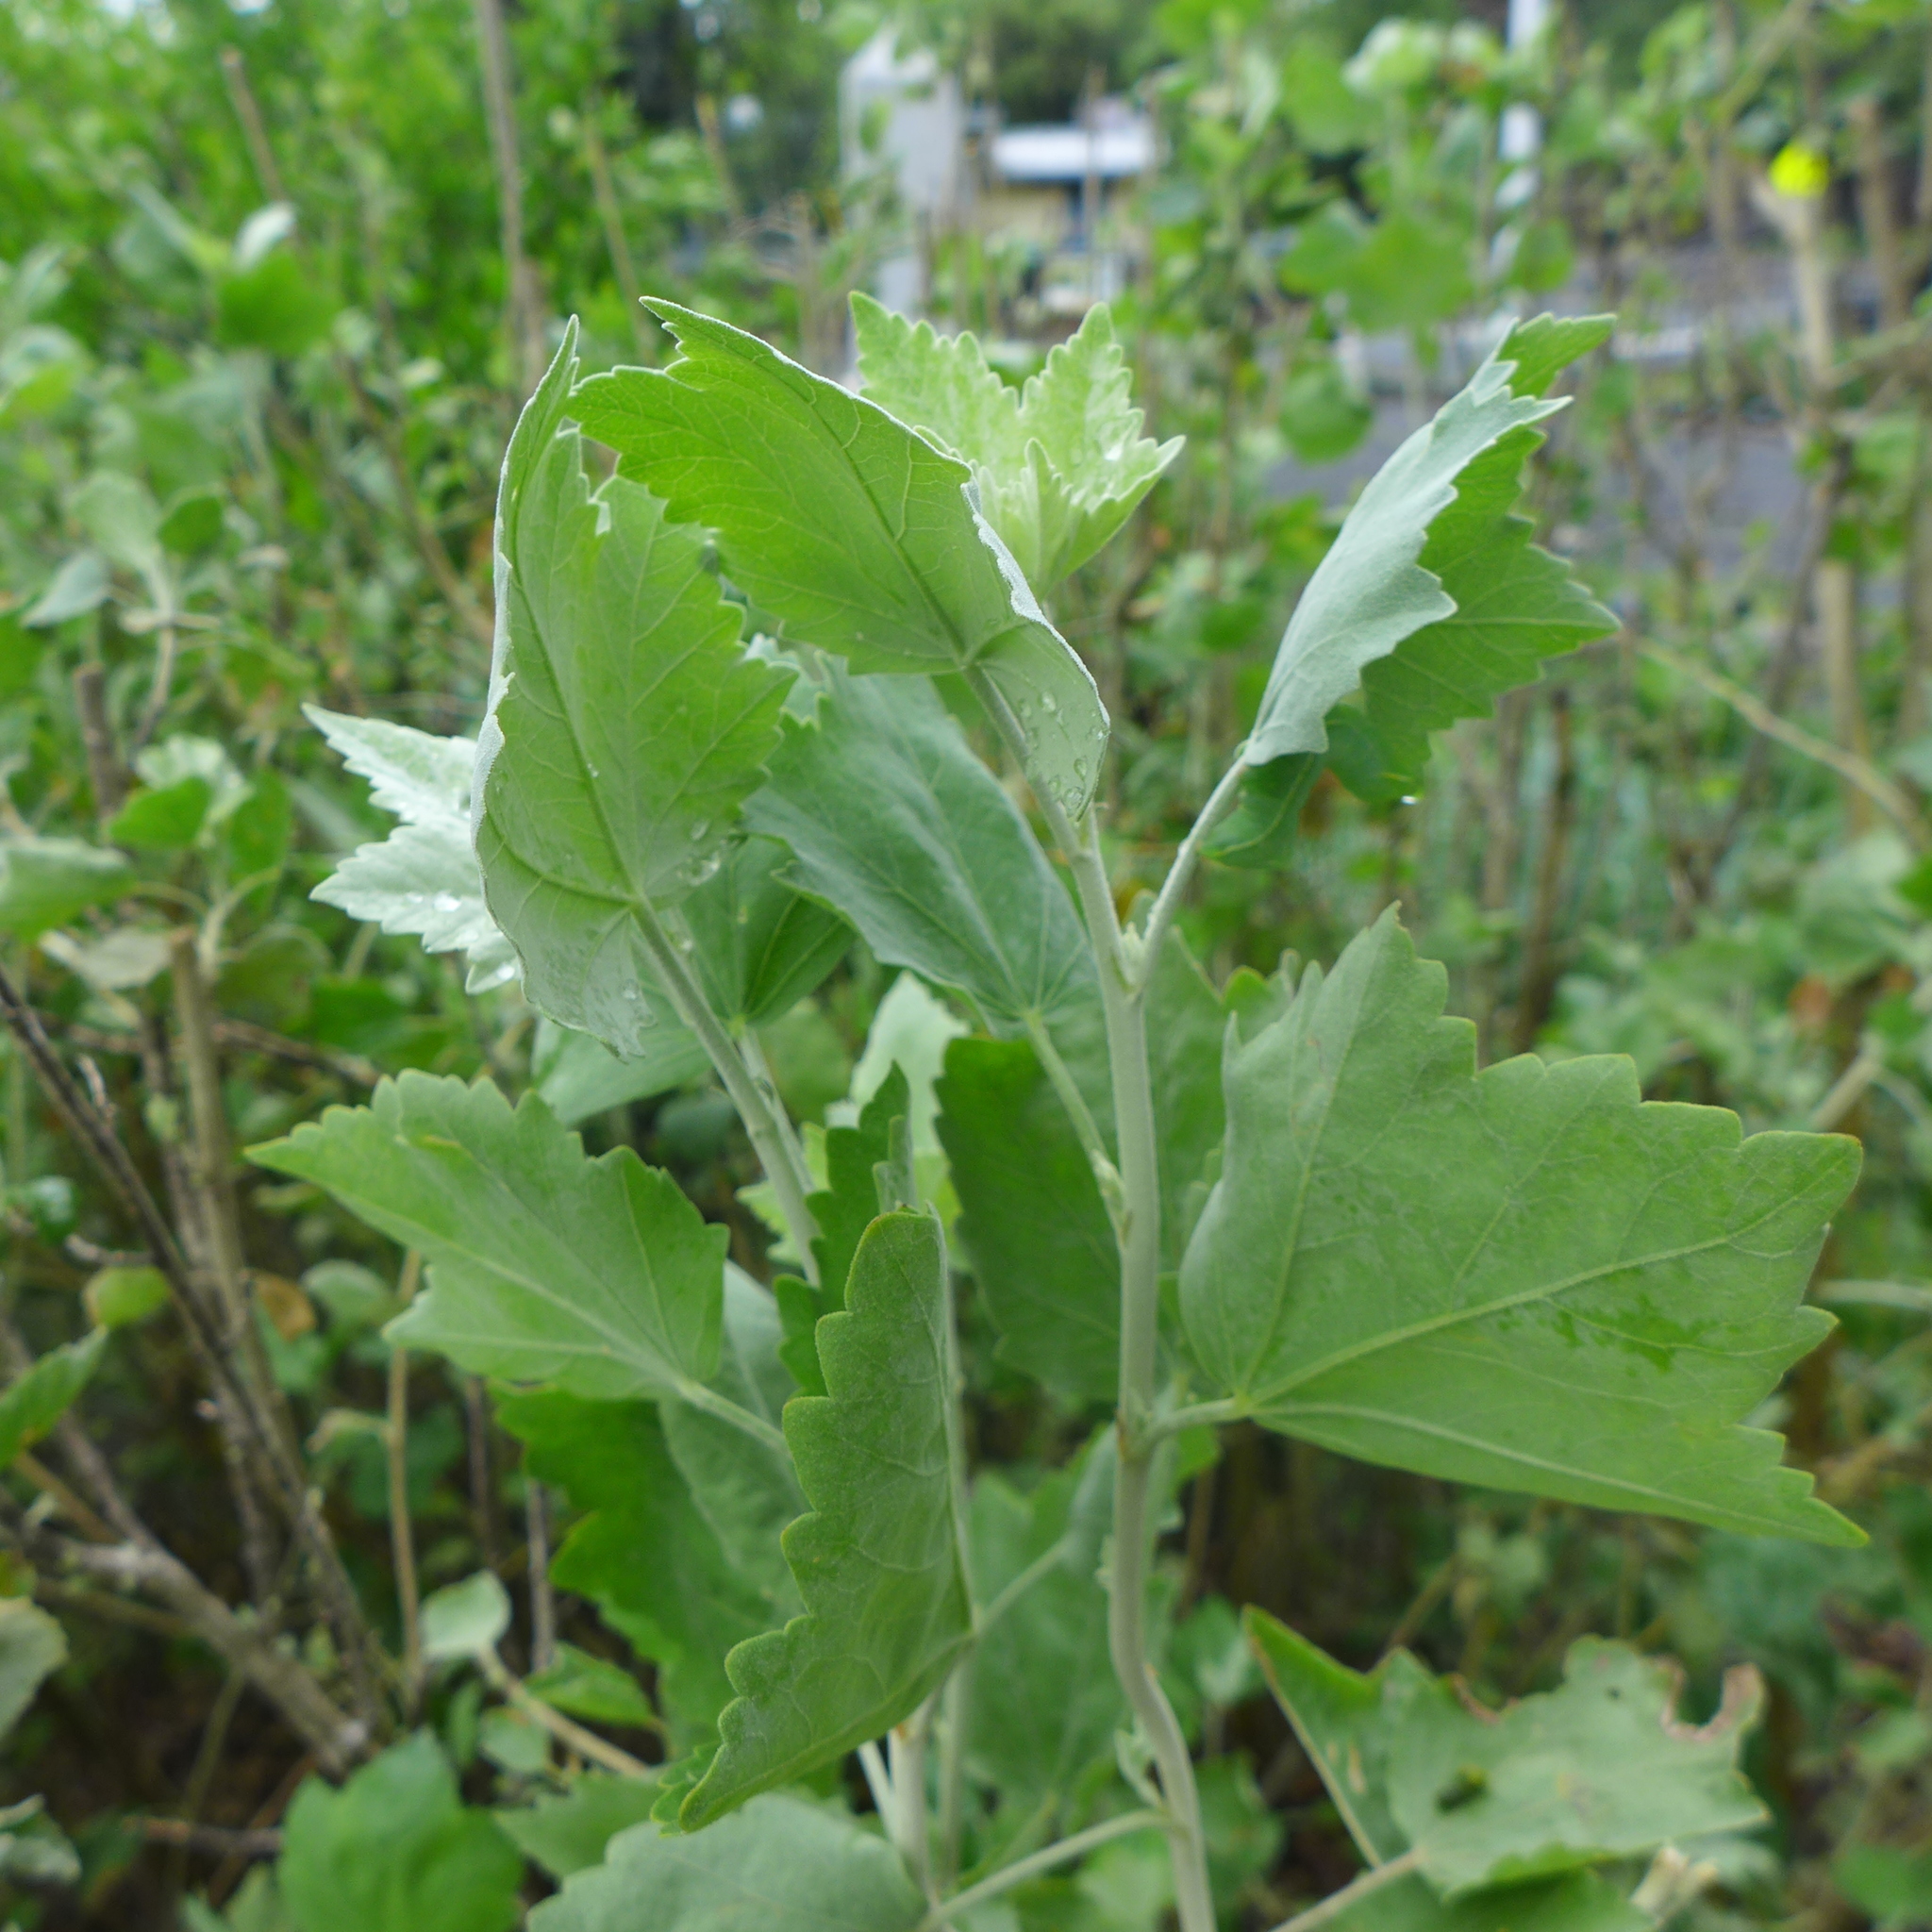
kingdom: Animalia
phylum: Arthropoda
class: Insecta
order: Lepidoptera
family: Noctuidae
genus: Amphipyra
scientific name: Amphipyra pyramidoides
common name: American copper underwing
